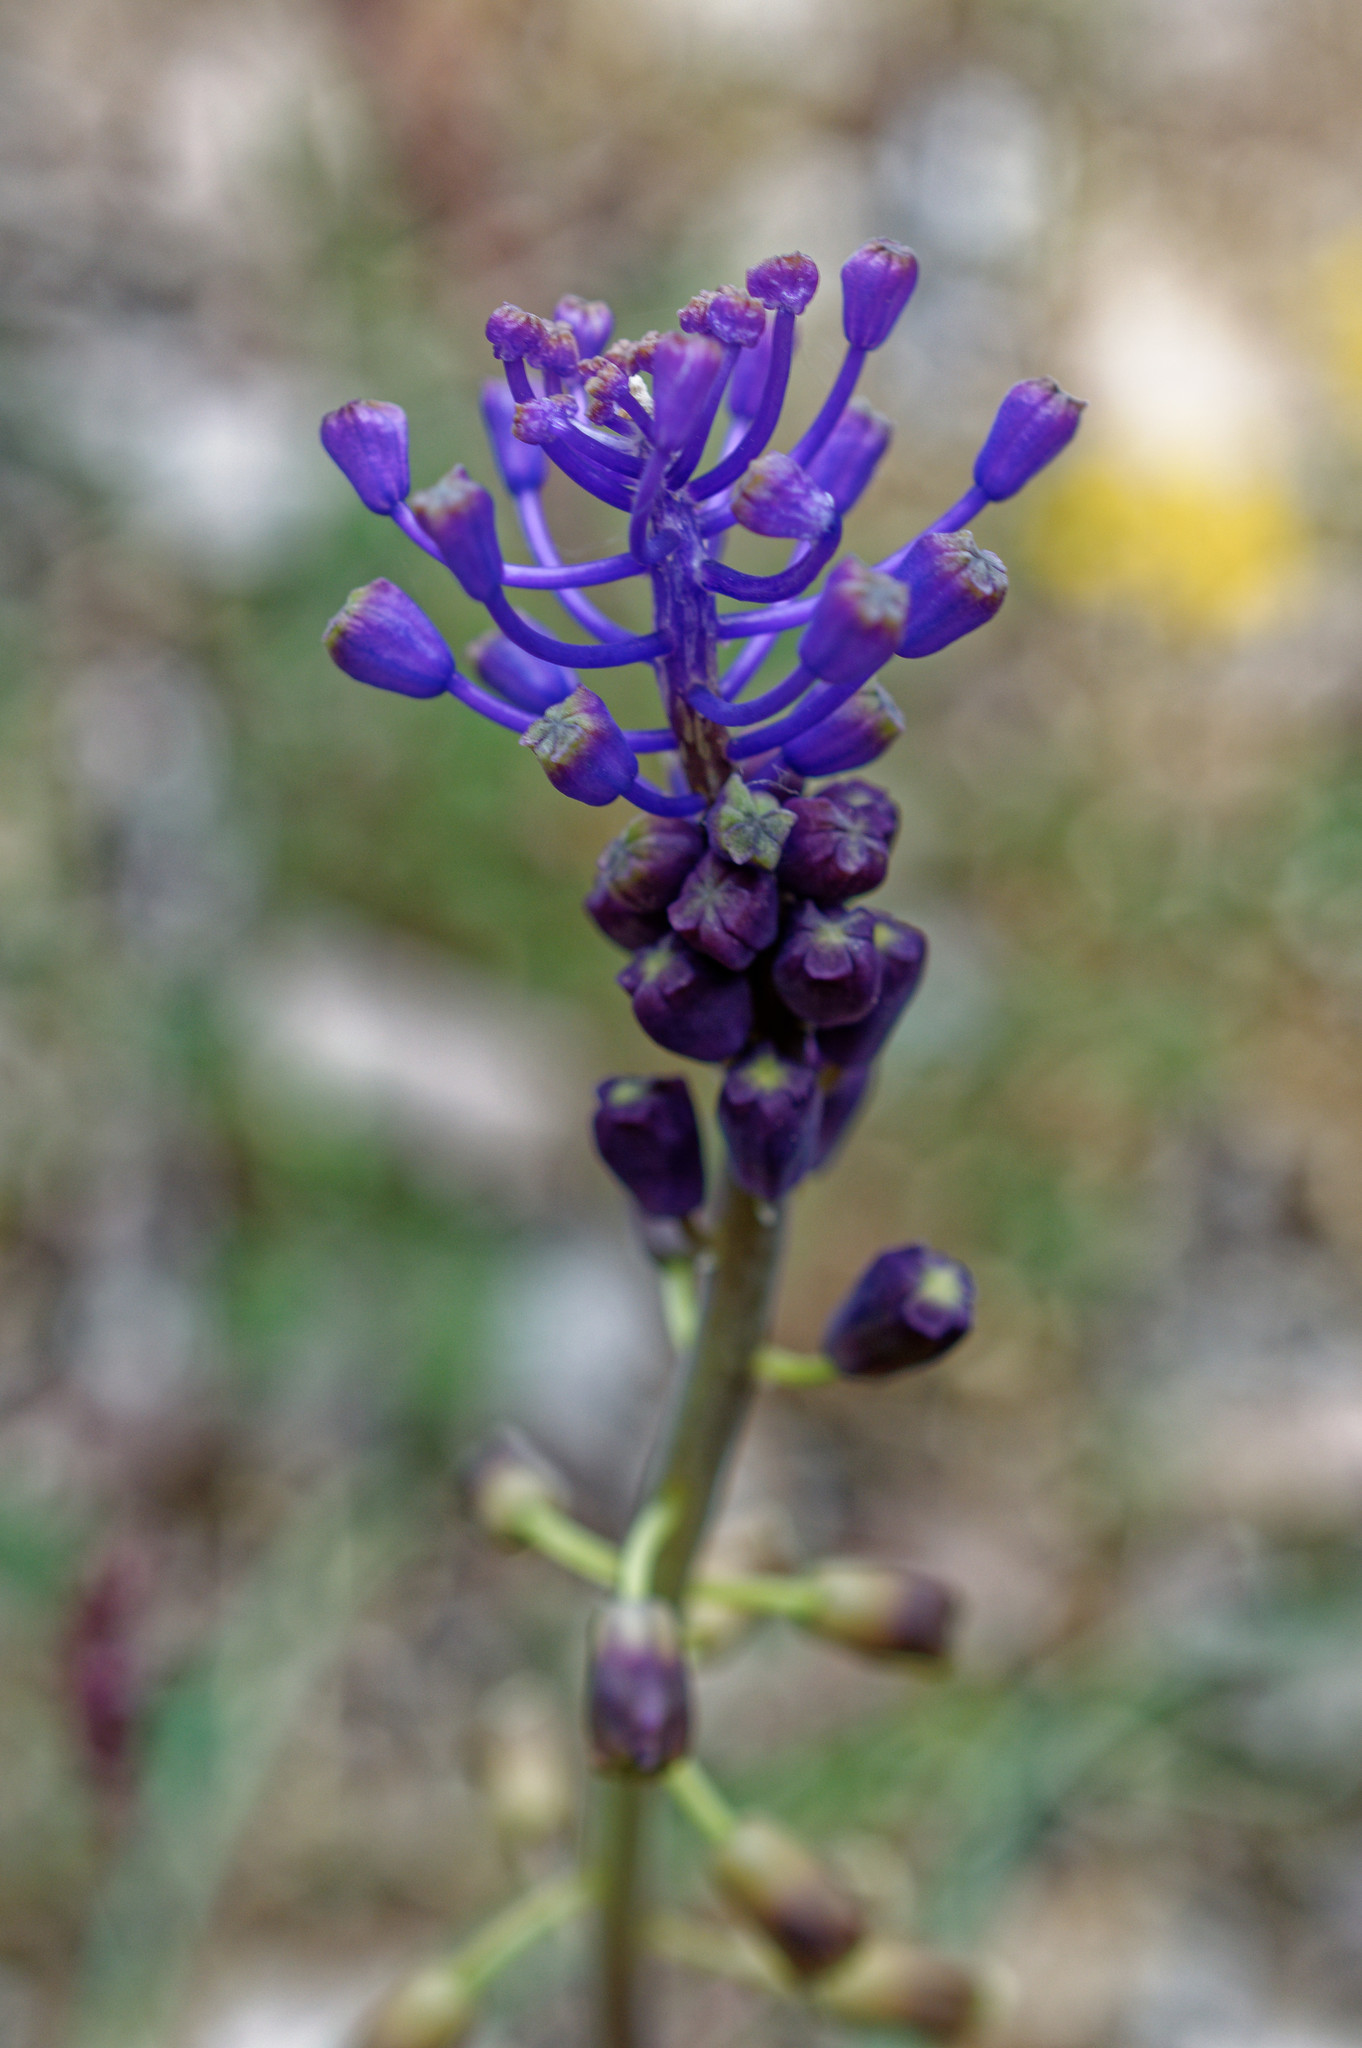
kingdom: Plantae
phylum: Tracheophyta
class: Liliopsida
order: Asparagales
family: Asparagaceae
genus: Muscari
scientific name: Muscari comosum
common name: Tassel hyacinth
